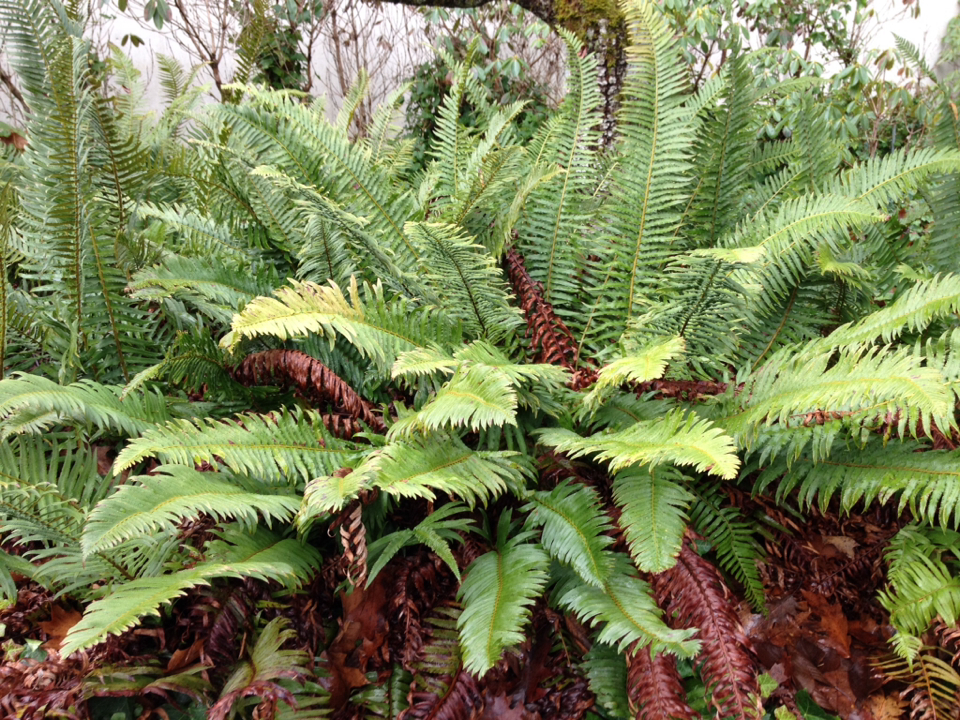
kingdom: Plantae
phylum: Tracheophyta
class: Polypodiopsida
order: Polypodiales
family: Dryopteridaceae
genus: Polystichum
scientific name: Polystichum munitum
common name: Western sword-fern
